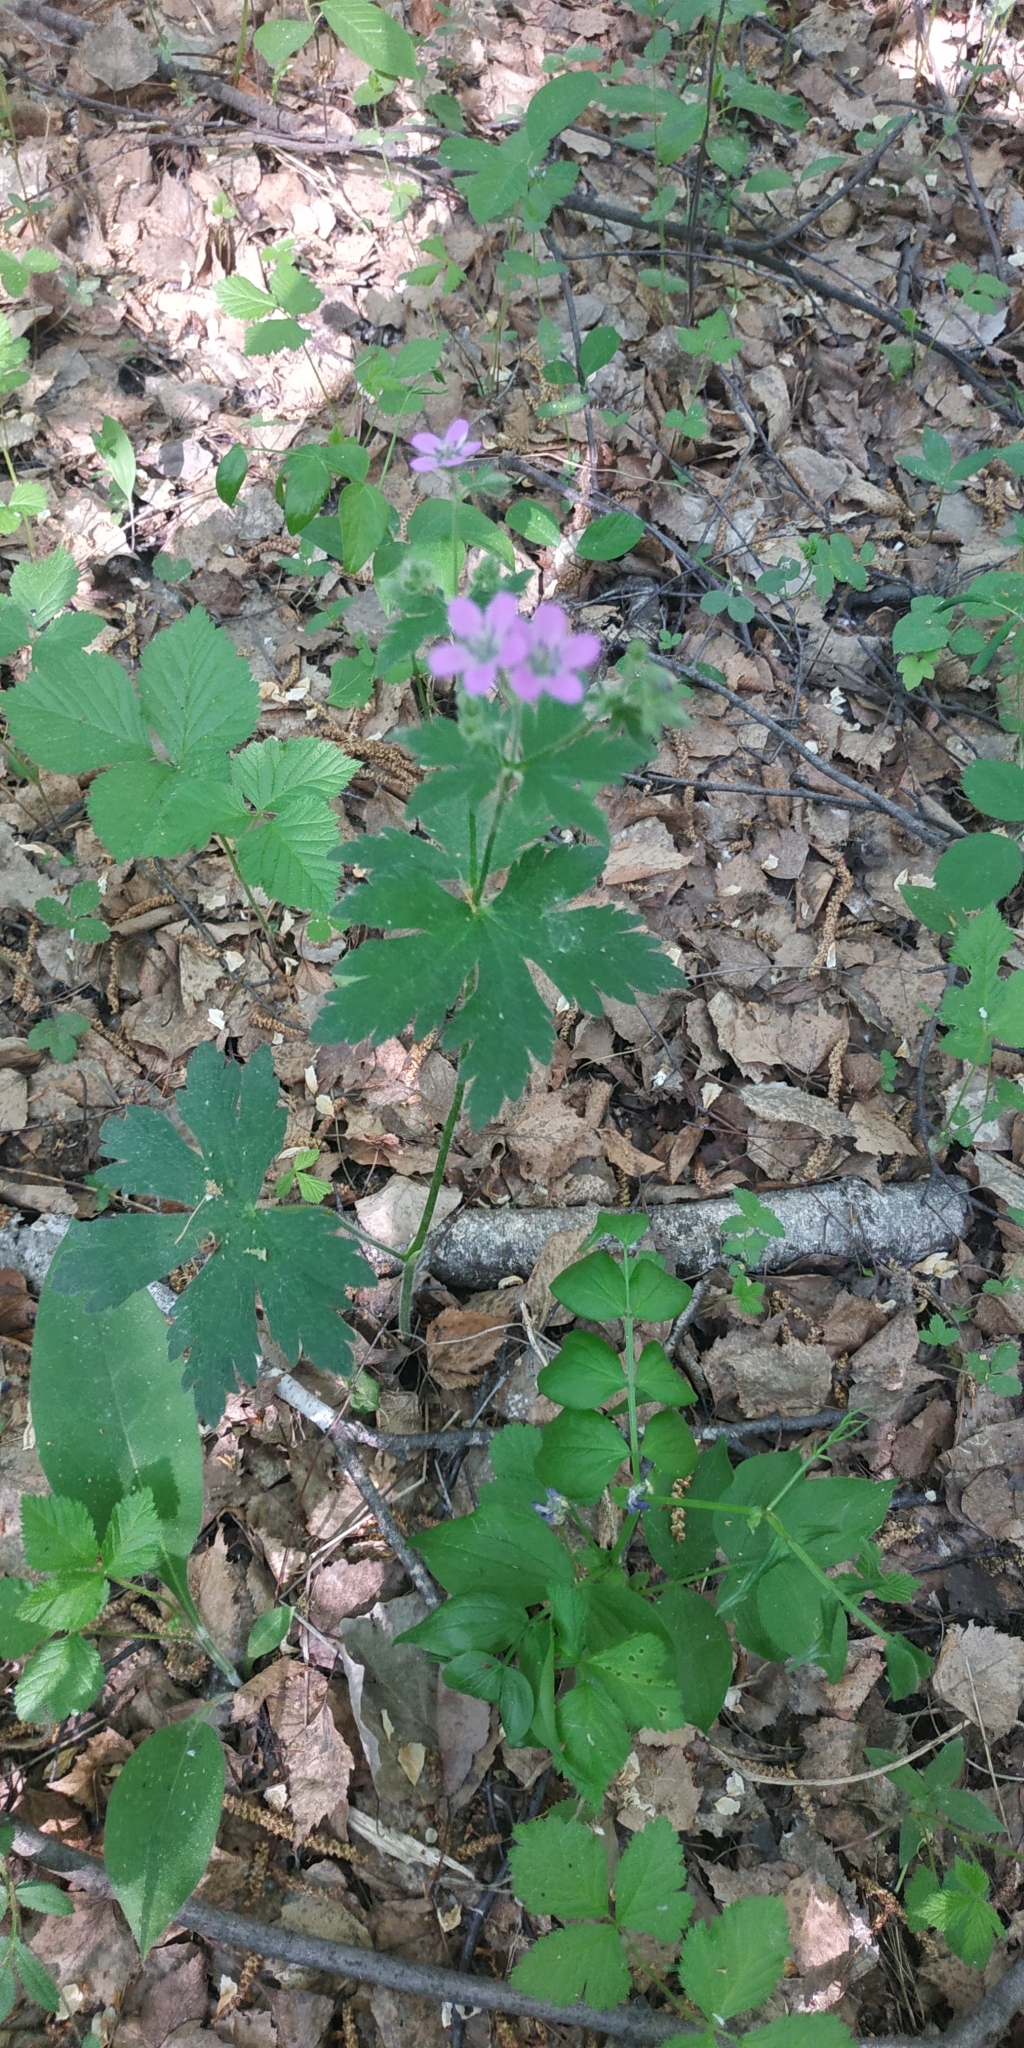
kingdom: Plantae
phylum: Tracheophyta
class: Magnoliopsida
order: Geraniales
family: Geraniaceae
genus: Geranium
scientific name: Geranium sylvaticum
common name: Wood crane's-bill
